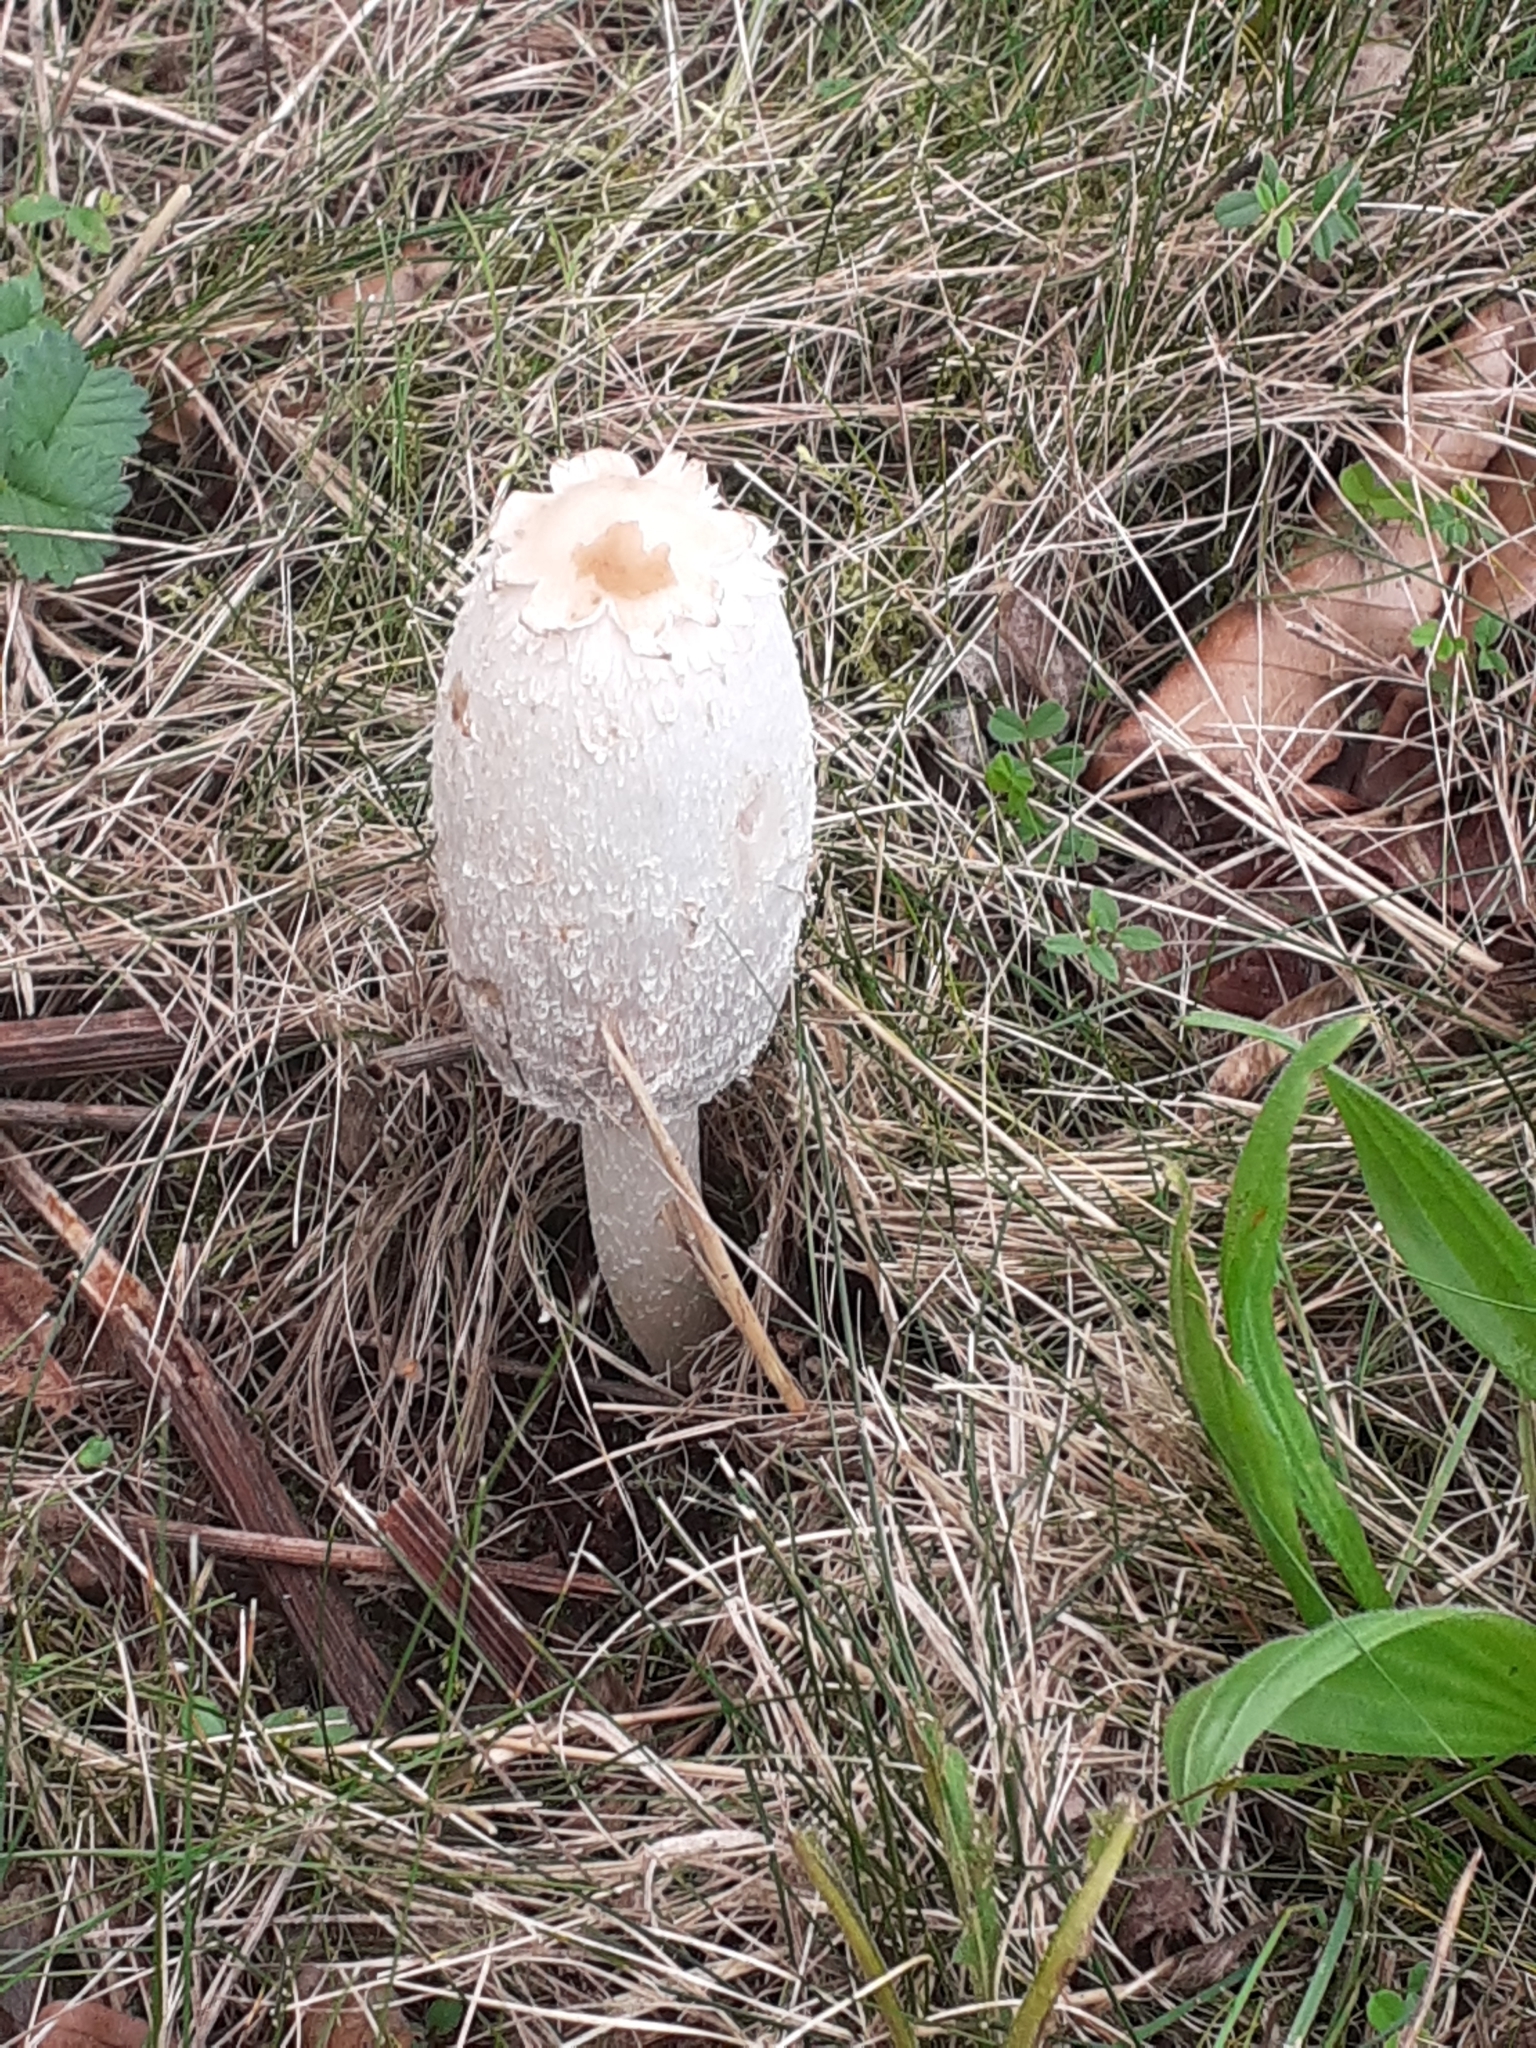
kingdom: Fungi
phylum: Basidiomycota
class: Agaricomycetes
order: Agaricales
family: Agaricaceae
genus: Coprinus
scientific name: Coprinus comatus
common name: Lawyer's wig
